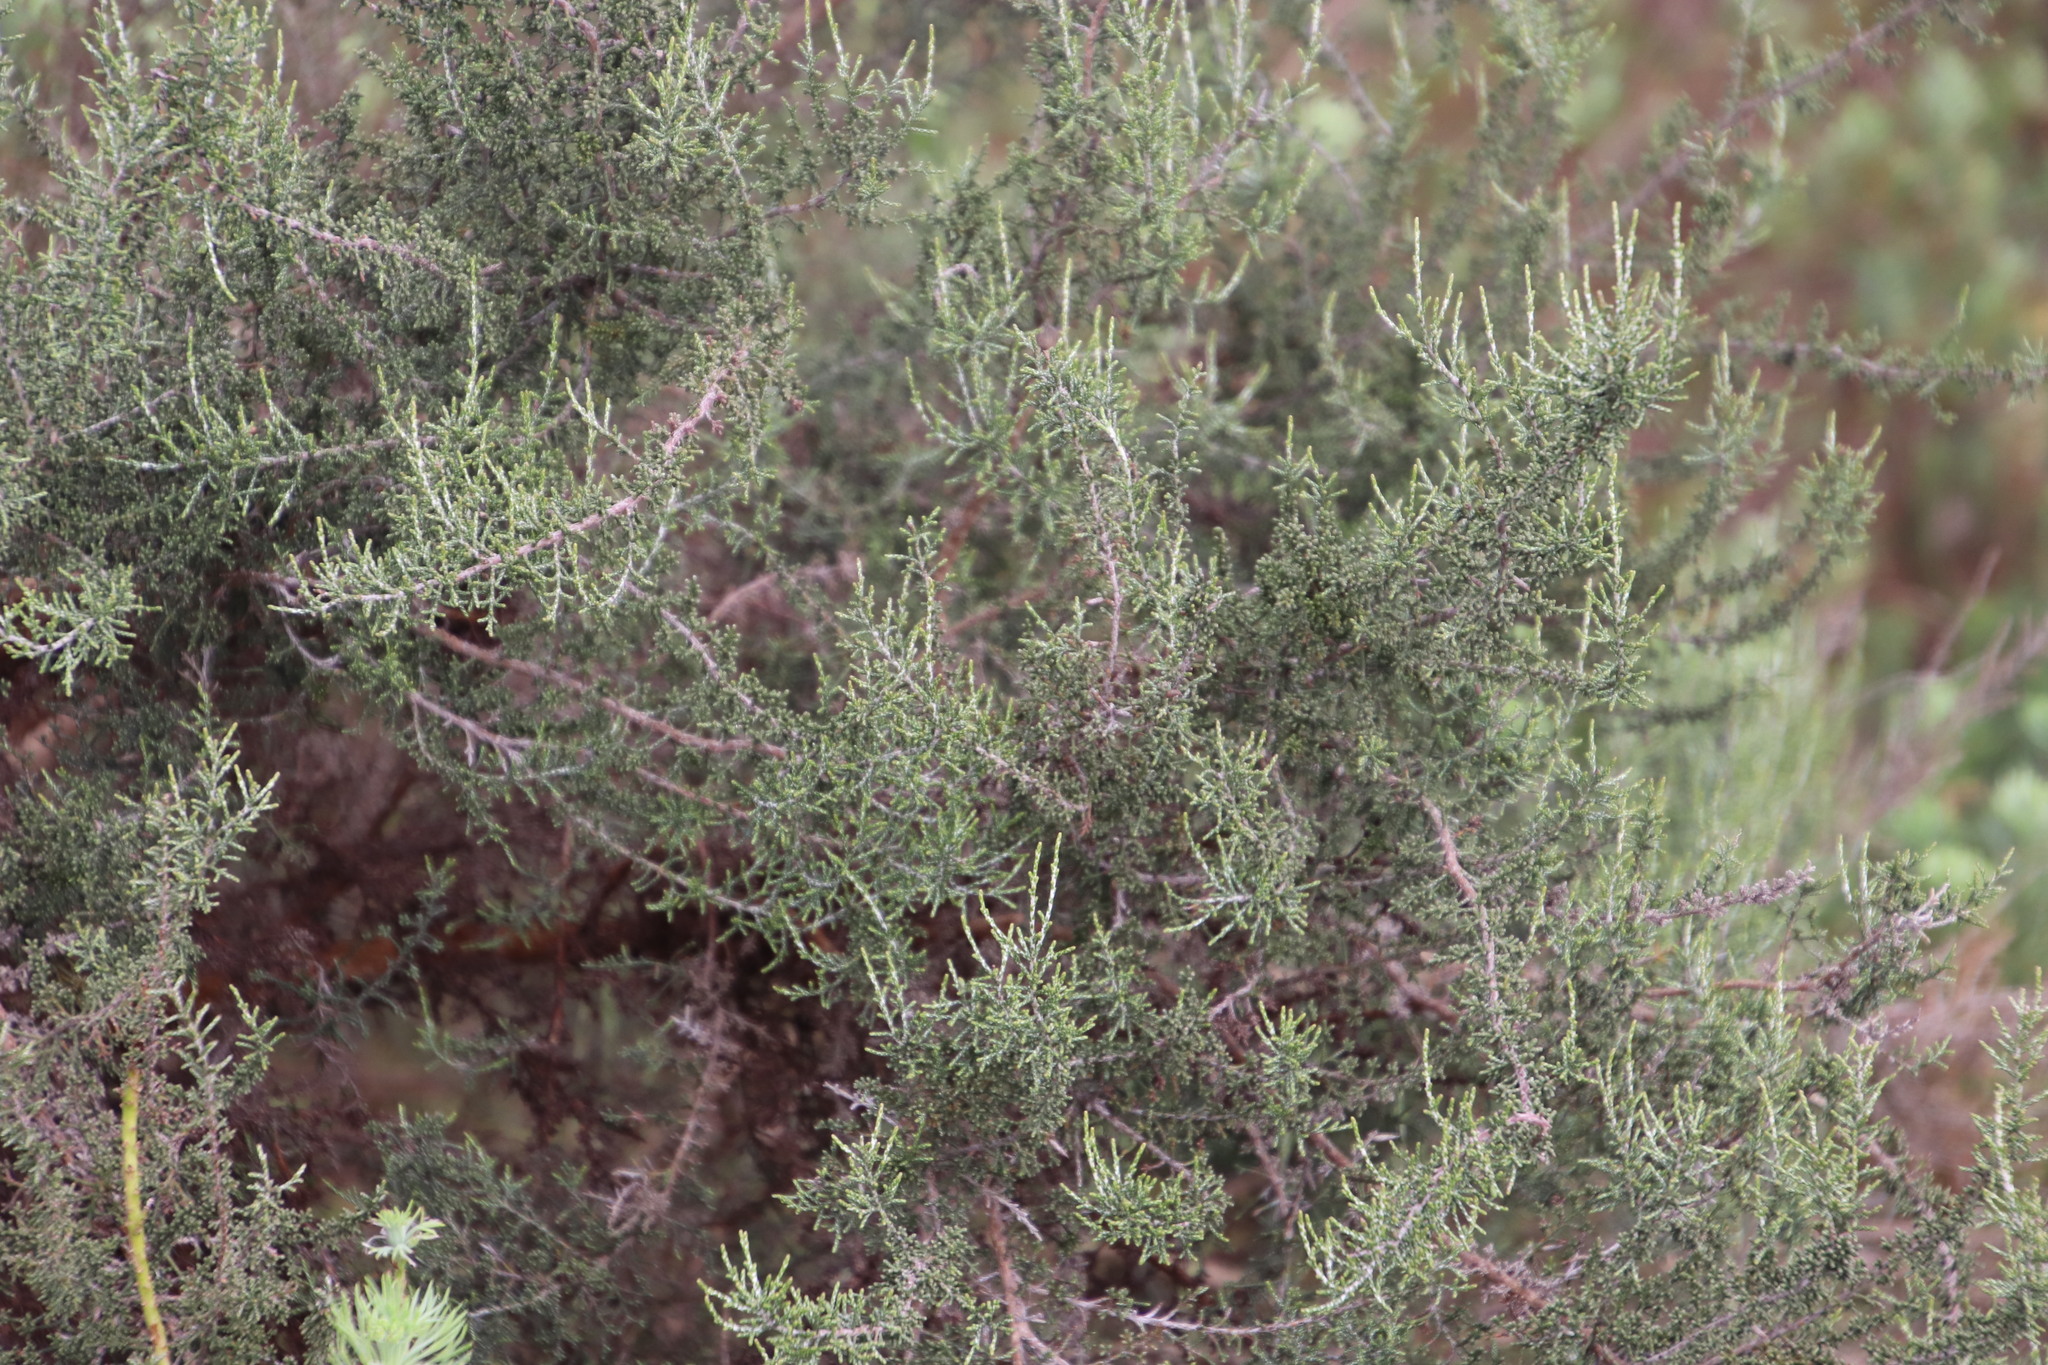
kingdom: Plantae
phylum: Tracheophyta
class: Magnoliopsida
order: Asterales
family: Asteraceae
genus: Dicerothamnus
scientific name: Dicerothamnus rhinocerotis
